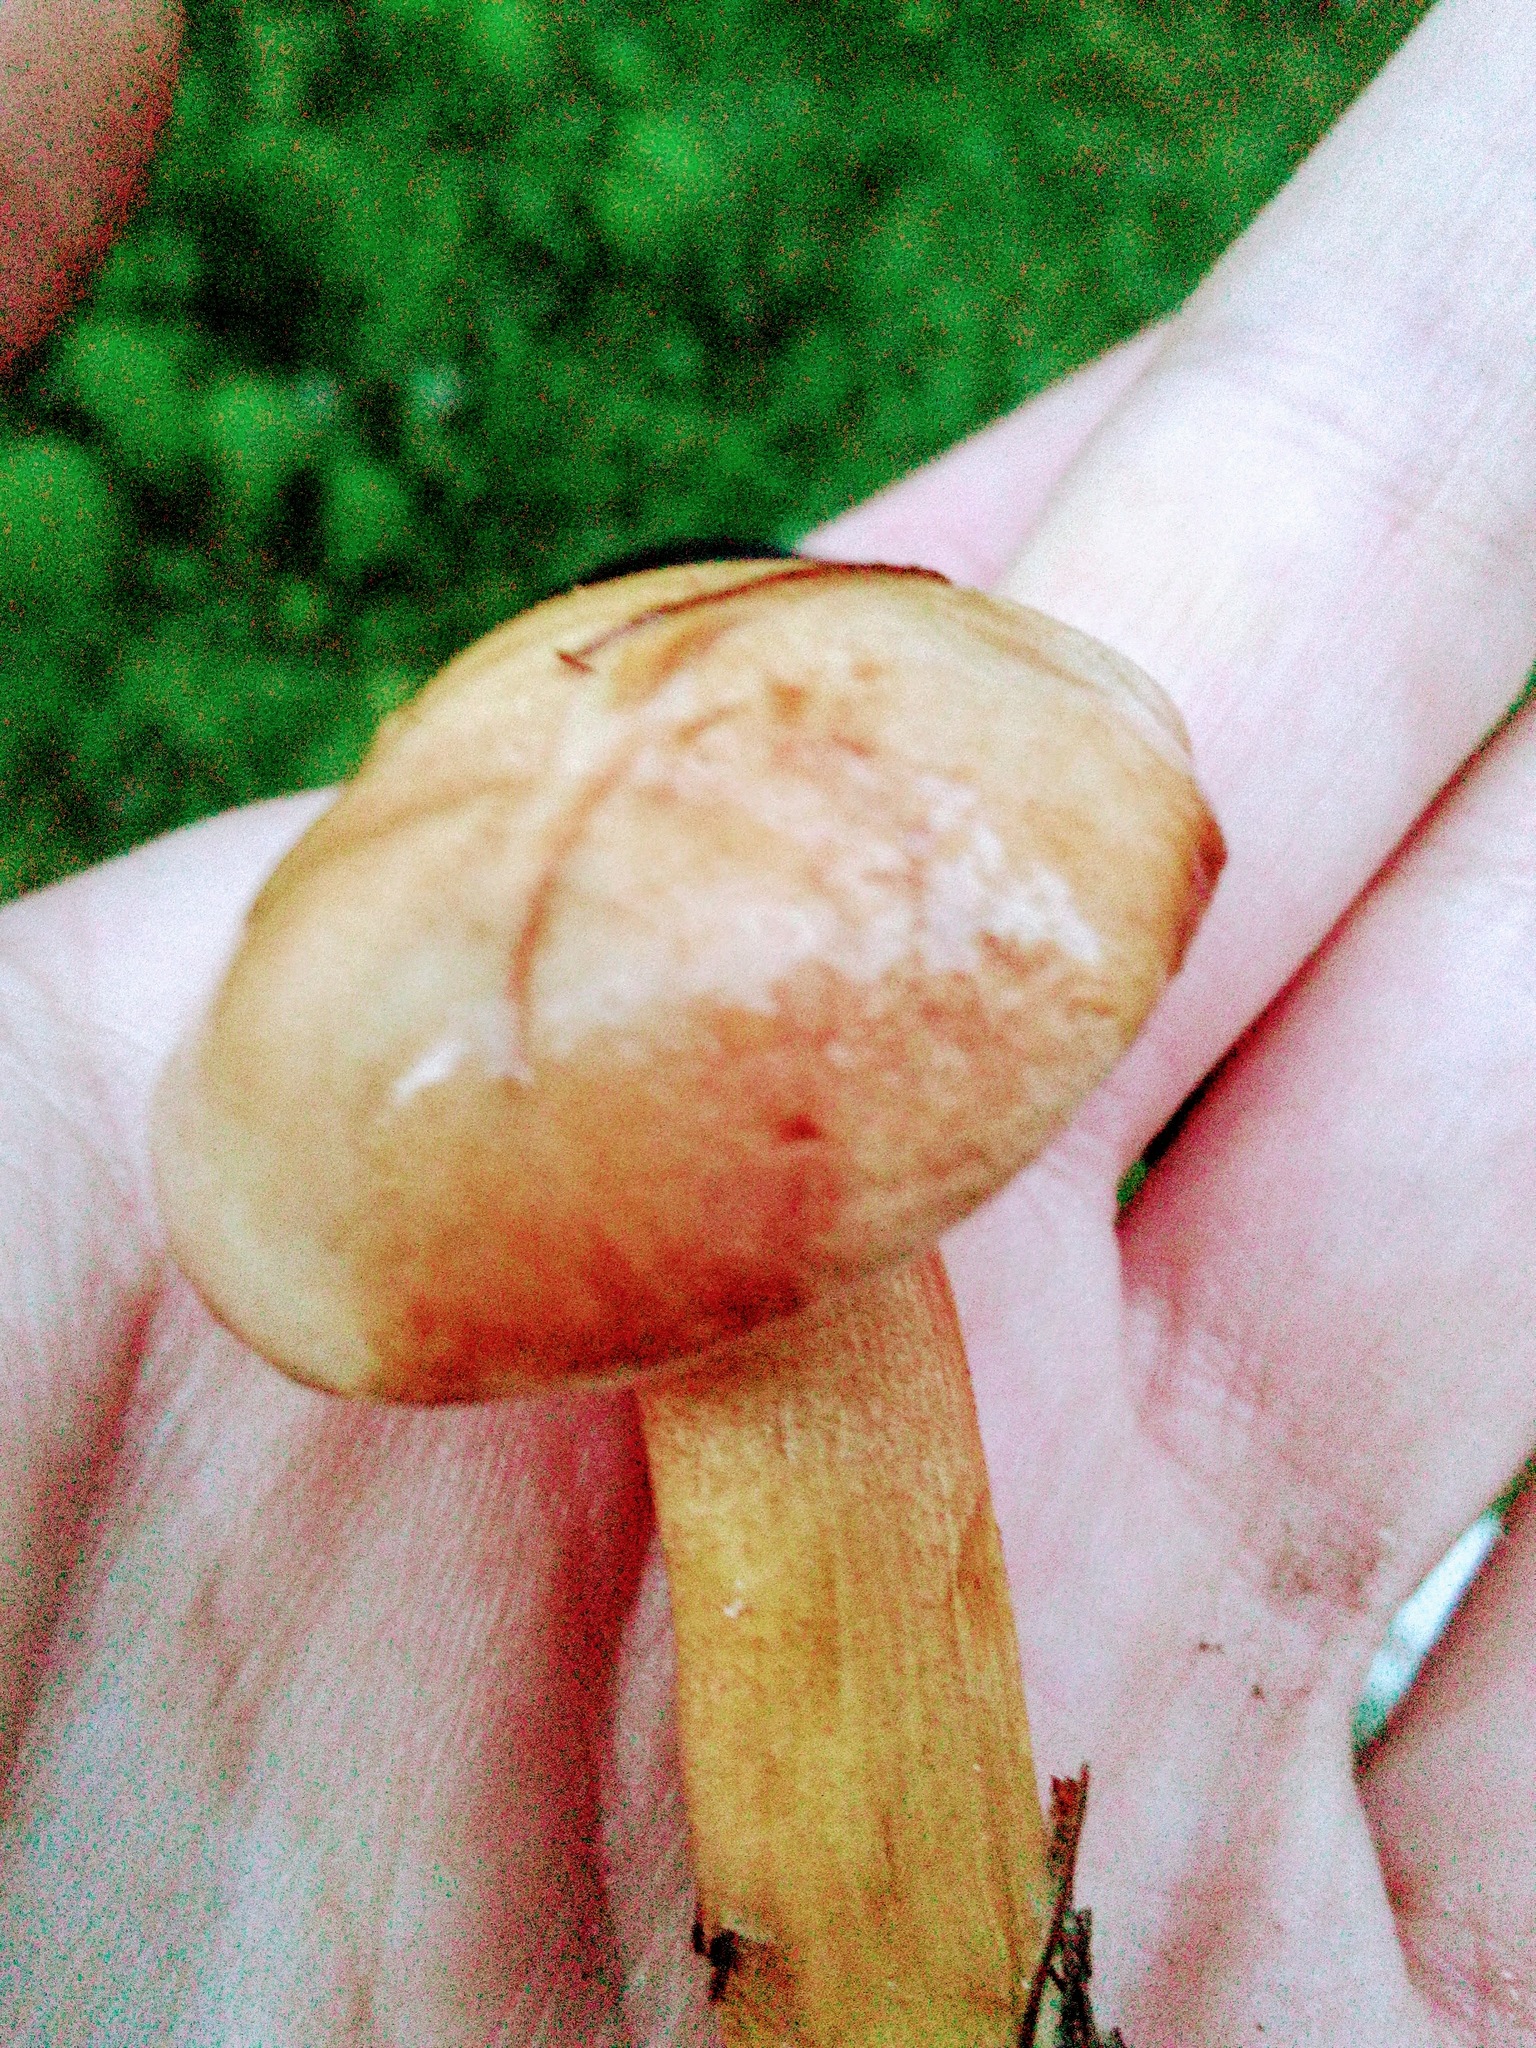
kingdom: Fungi
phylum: Basidiomycota
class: Agaricomycetes
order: Boletales
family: Boletaceae
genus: Chalciporus
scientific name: Chalciporus piperatus
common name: Peppery bolete
